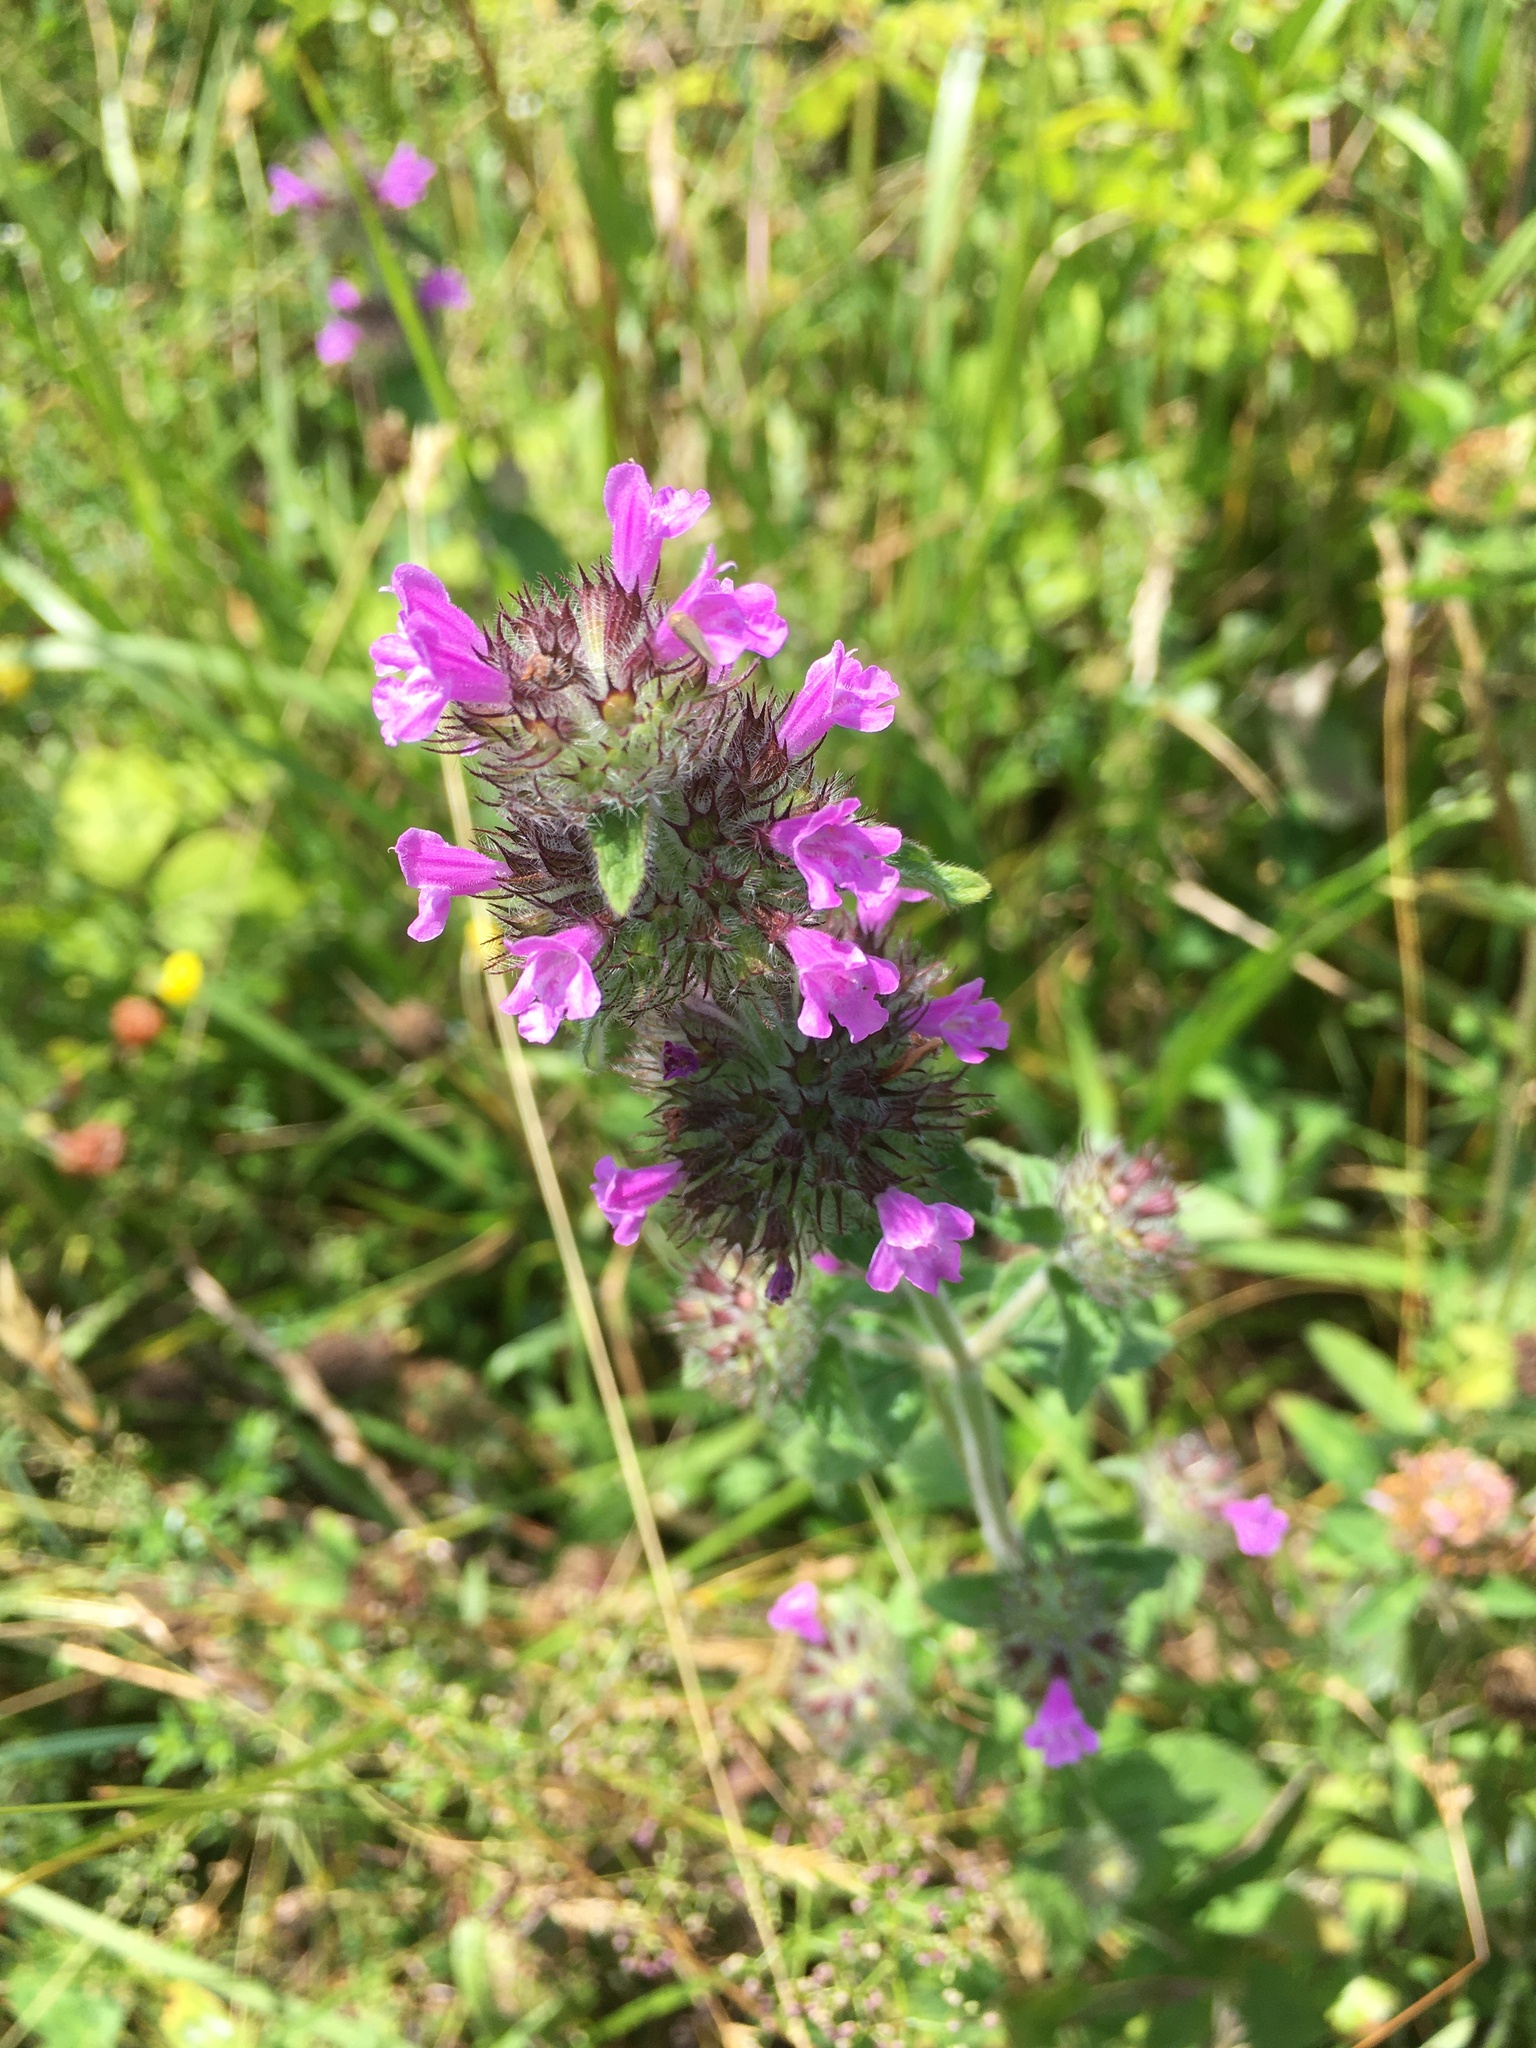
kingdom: Plantae
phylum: Tracheophyta
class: Magnoliopsida
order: Lamiales
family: Lamiaceae
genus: Clinopodium
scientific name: Clinopodium vulgare
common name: Wild basil
